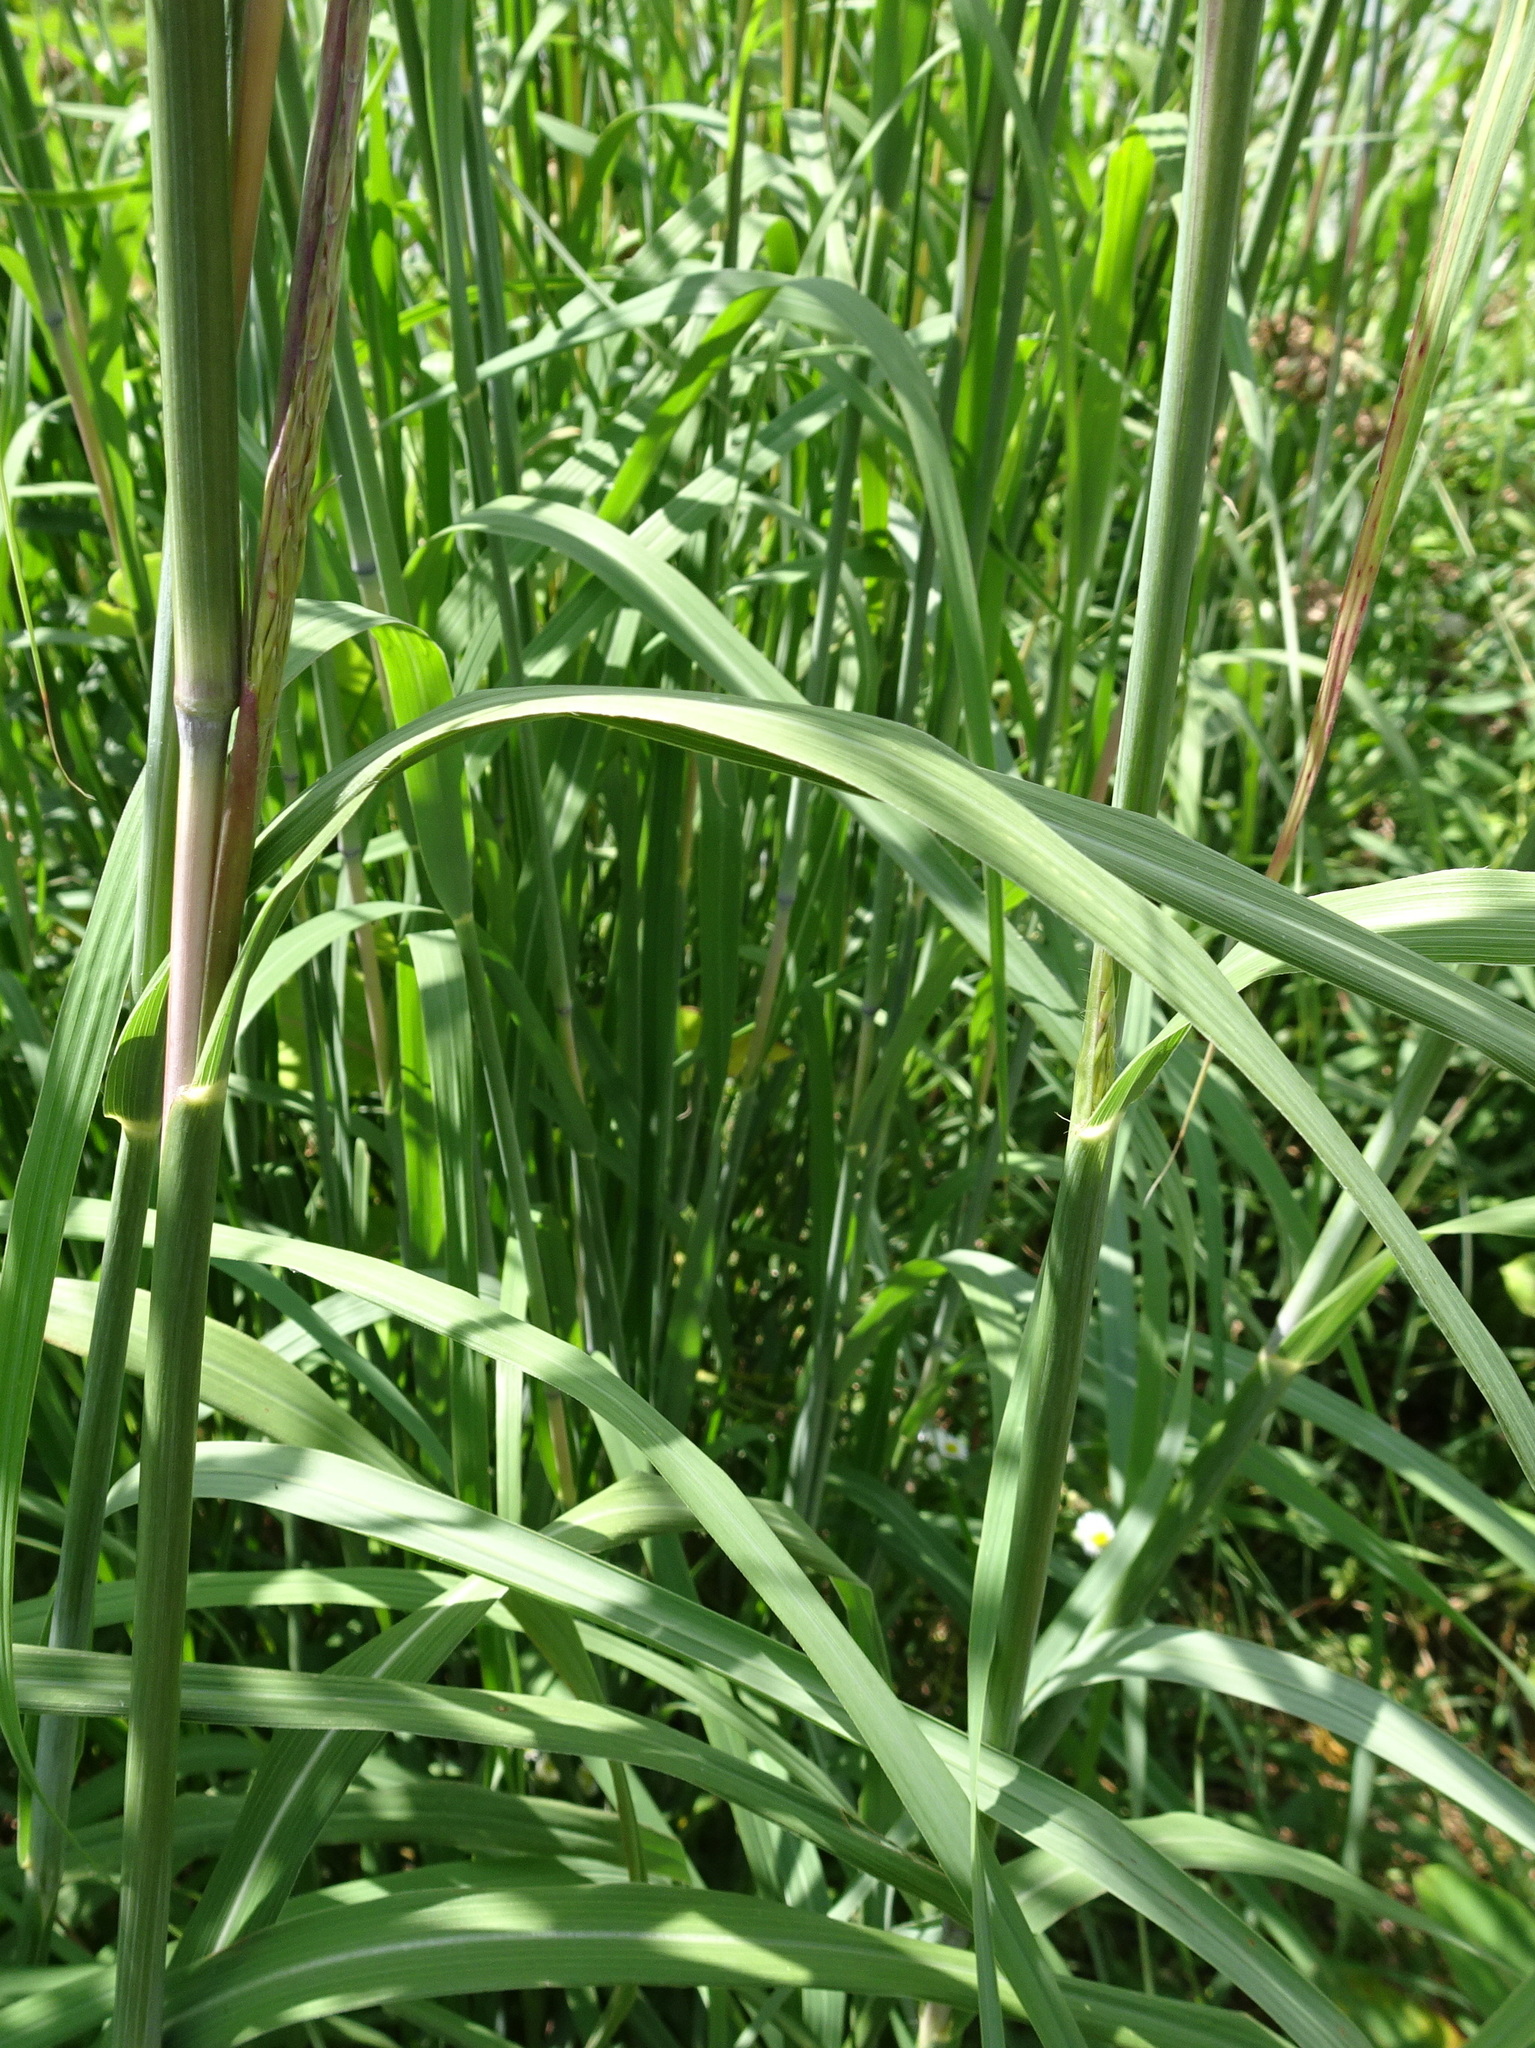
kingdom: Plantae
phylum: Tracheophyta
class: Liliopsida
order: Poales
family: Poaceae
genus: Andropogon
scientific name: Andropogon gerardi
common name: Big bluestem
